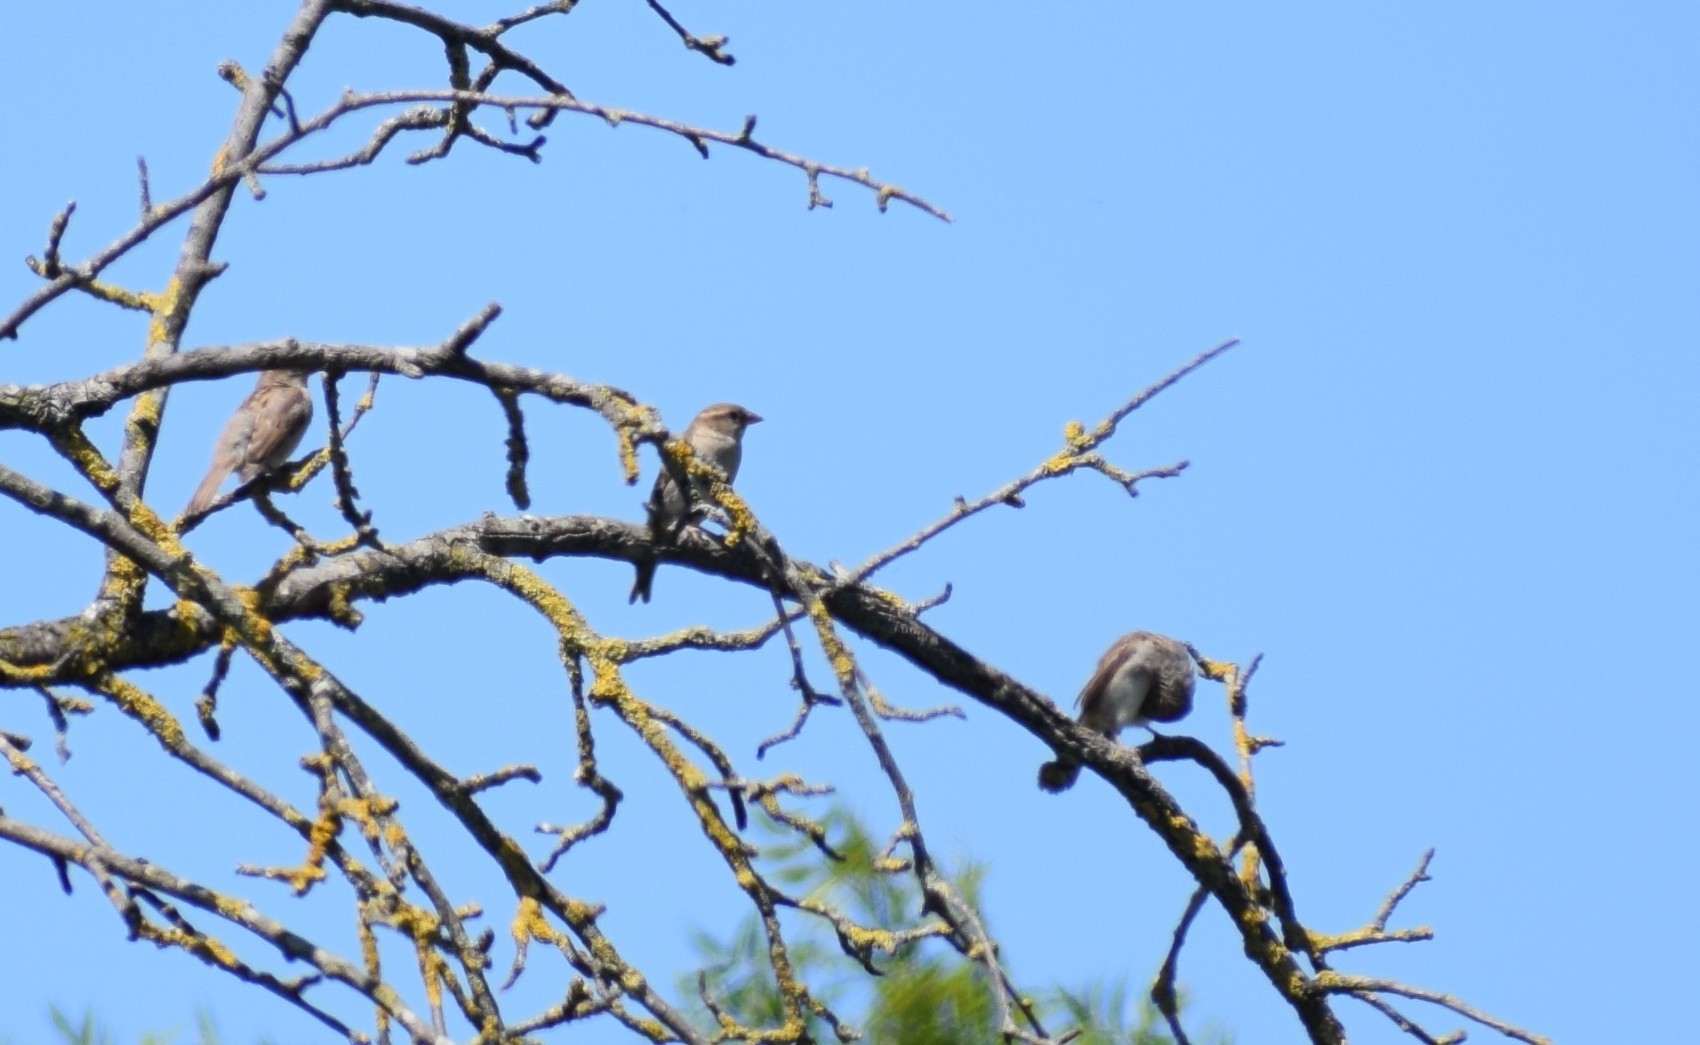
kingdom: Animalia
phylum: Chordata
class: Aves
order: Passeriformes
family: Passeridae
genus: Passer
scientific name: Passer domesticus
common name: House sparrow
